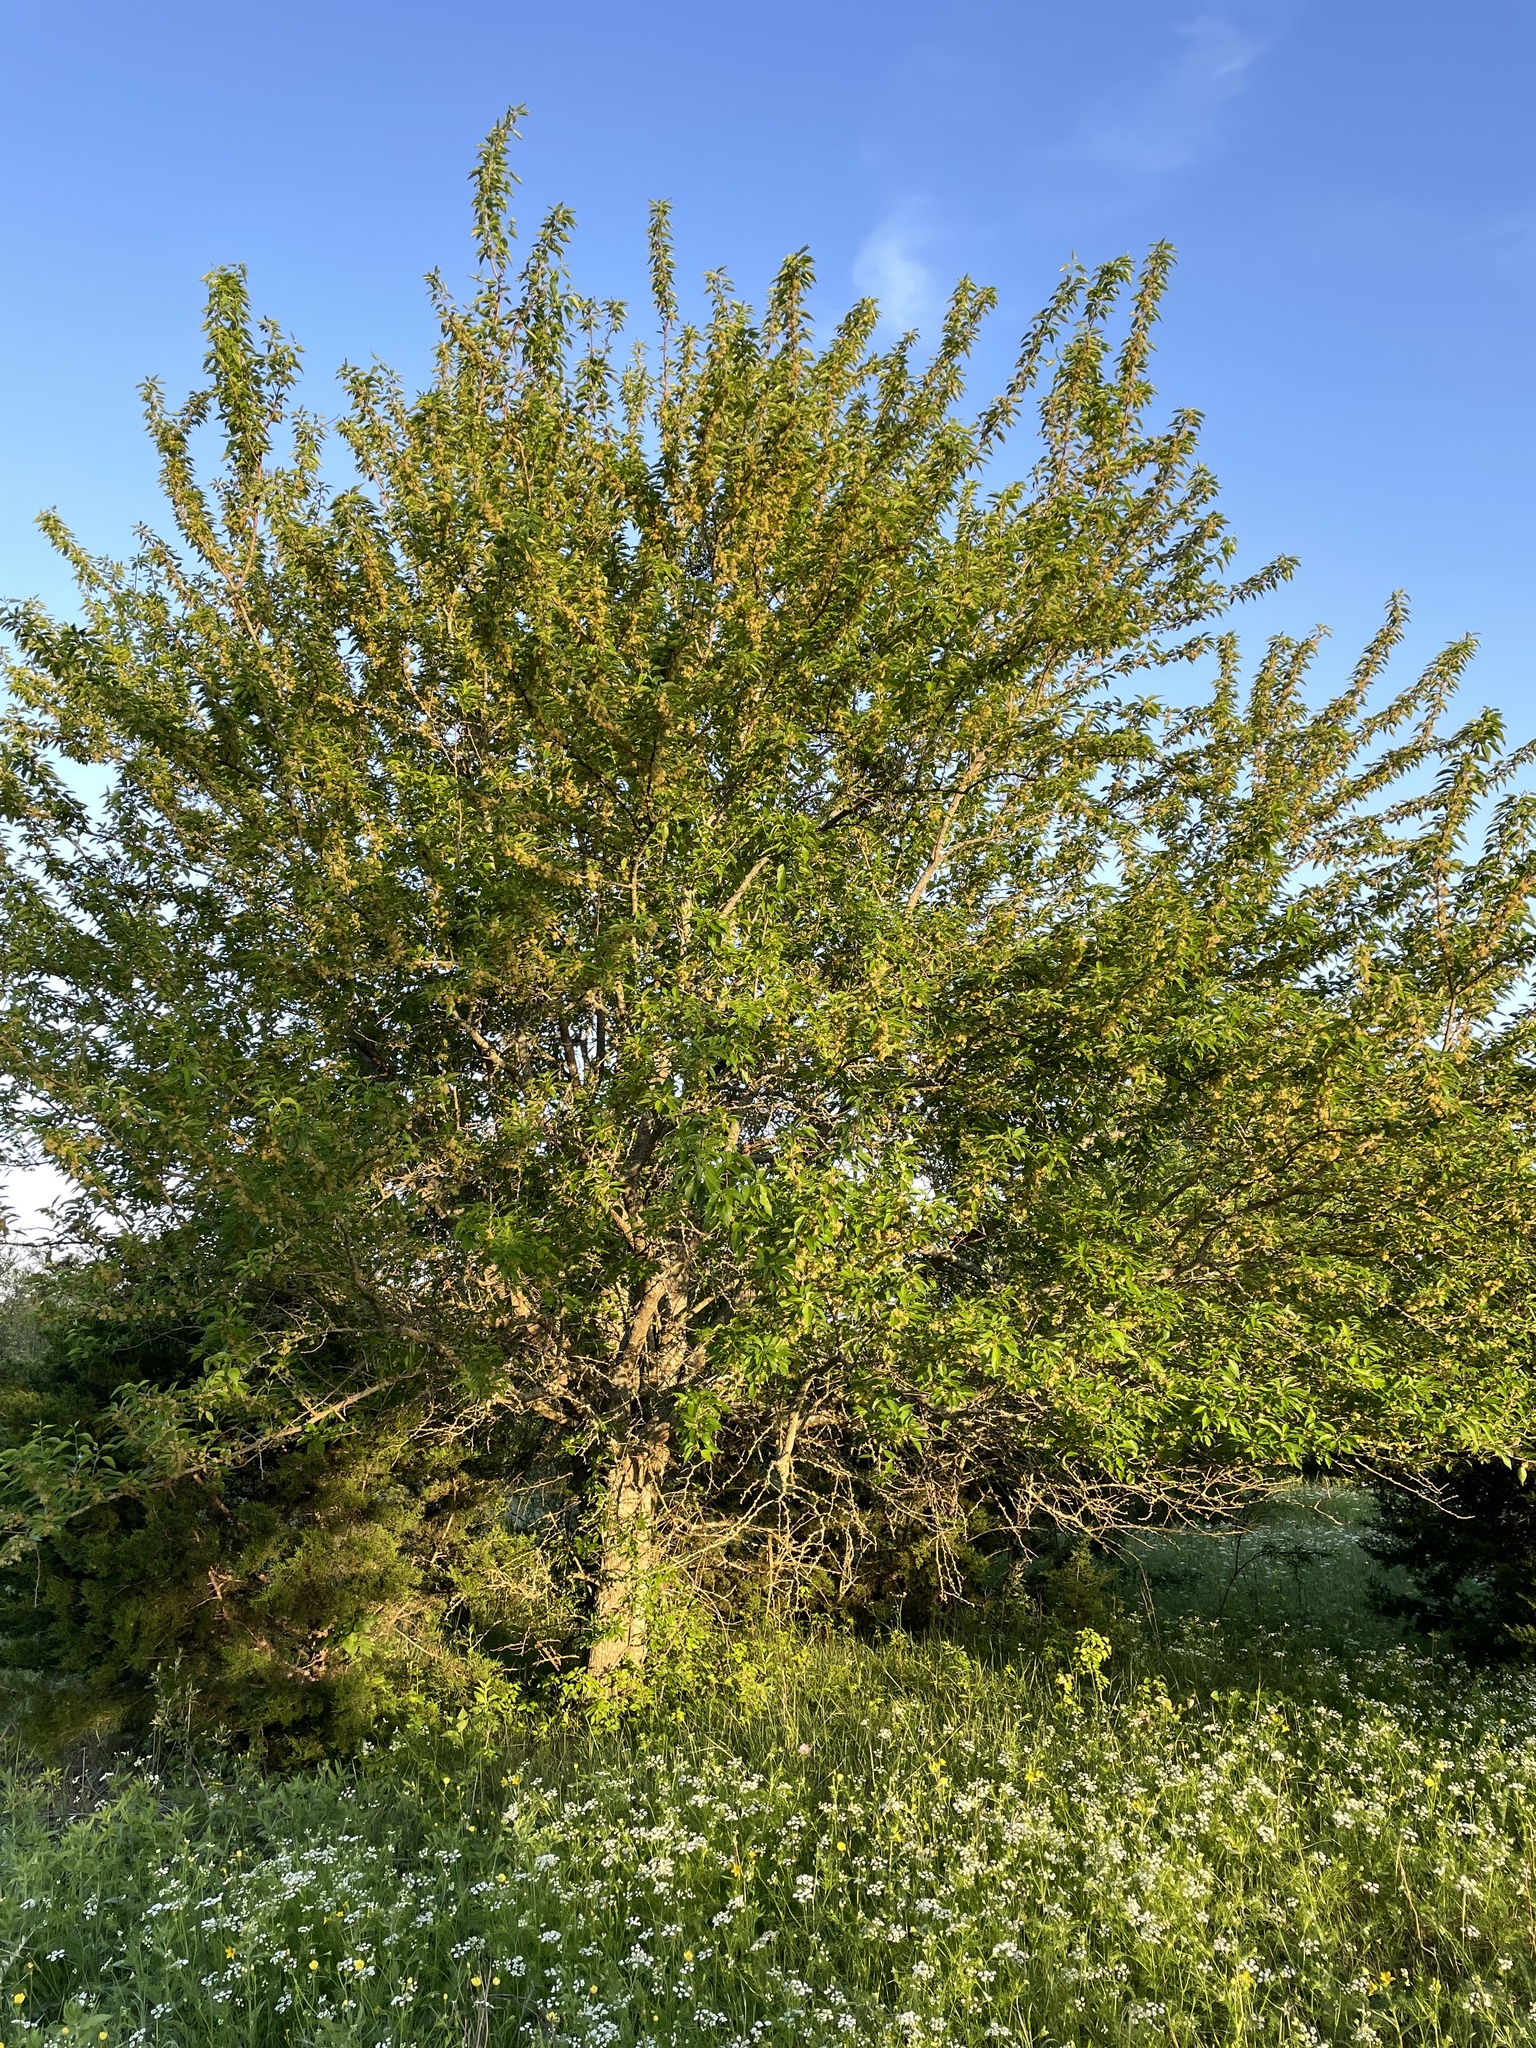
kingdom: Plantae
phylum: Tracheophyta
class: Magnoliopsida
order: Rosales
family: Moraceae
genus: Maclura
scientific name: Maclura pomifera
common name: Osage-orange
